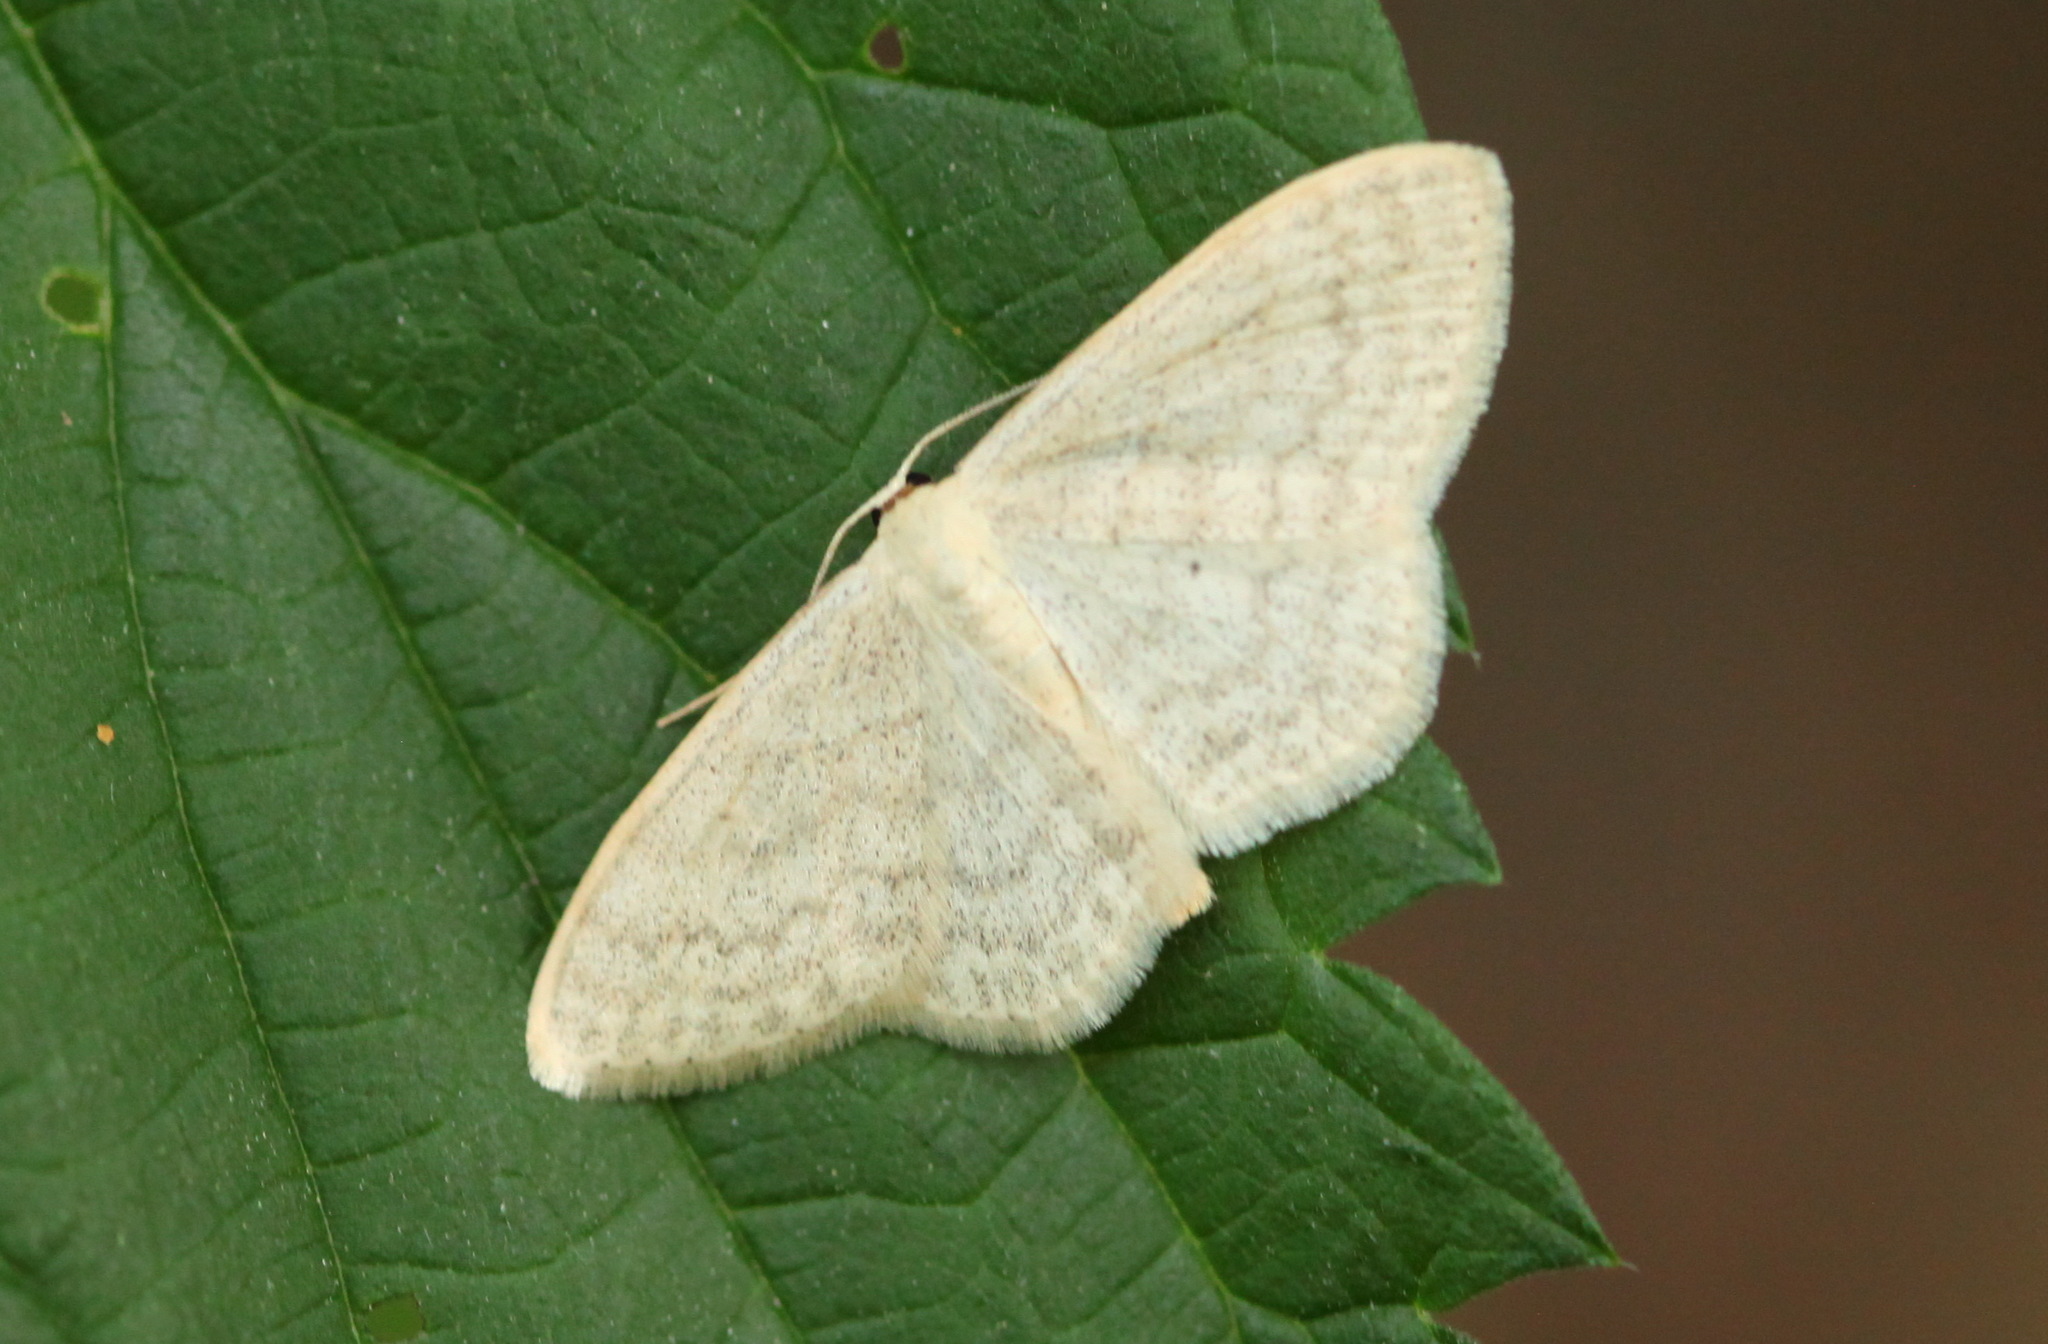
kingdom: Animalia
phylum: Arthropoda
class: Insecta
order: Lepidoptera
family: Geometridae
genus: Scopula
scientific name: Scopula floslactata
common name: Cream wave
